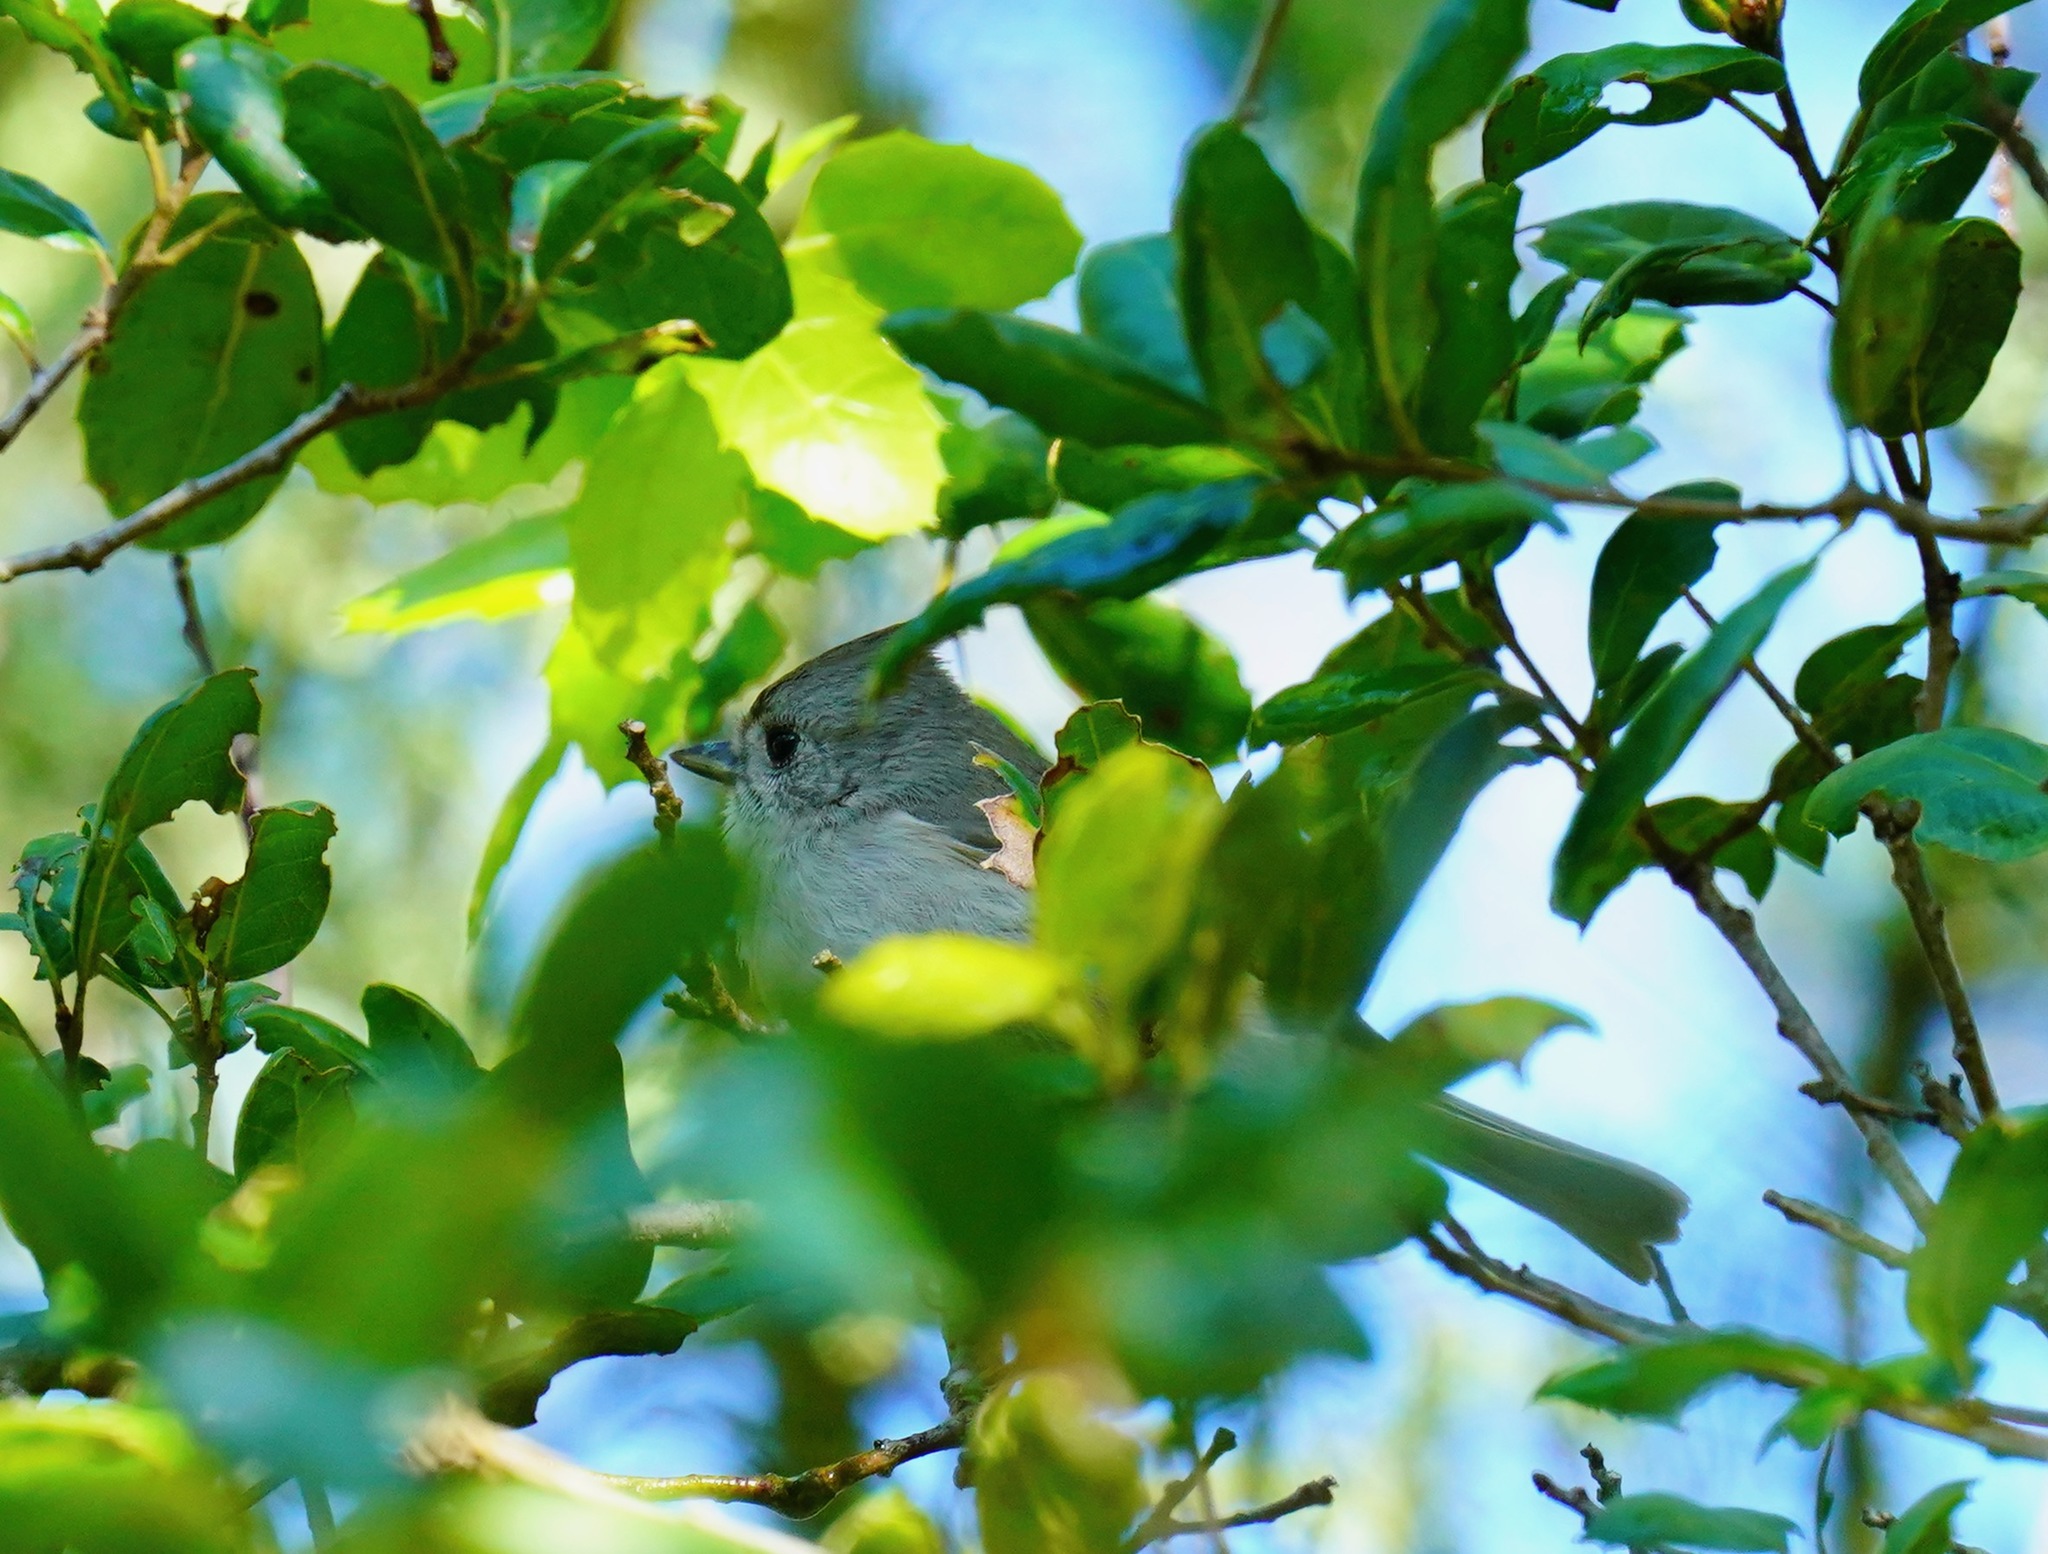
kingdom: Animalia
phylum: Chordata
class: Aves
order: Passeriformes
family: Paridae
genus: Baeolophus
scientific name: Baeolophus inornatus
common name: Oak titmouse
